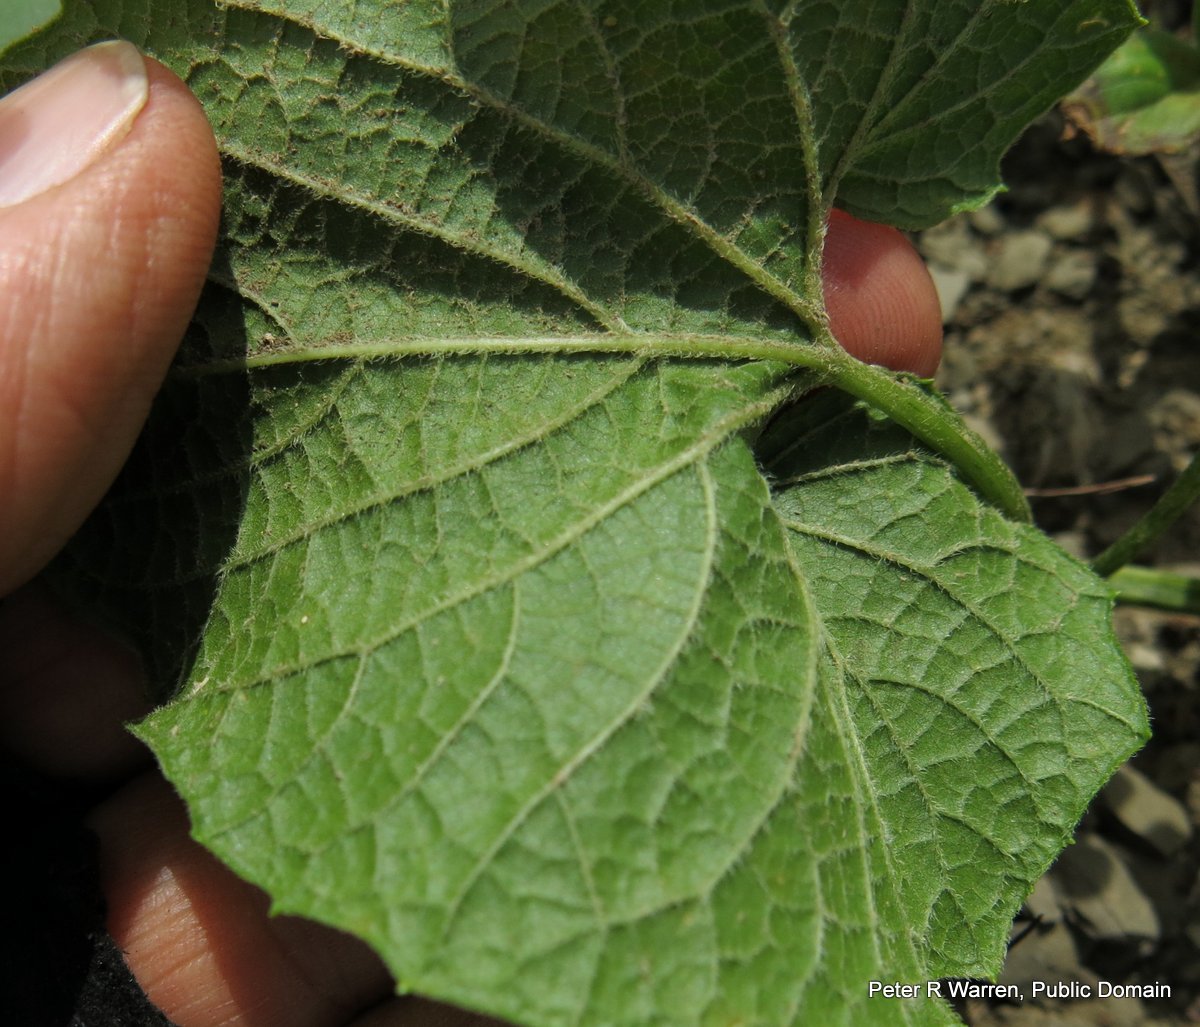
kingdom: Plantae
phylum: Tracheophyta
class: Magnoliopsida
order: Cucurbitales
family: Cucurbitaceae
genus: Momordica
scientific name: Momordica foetida
